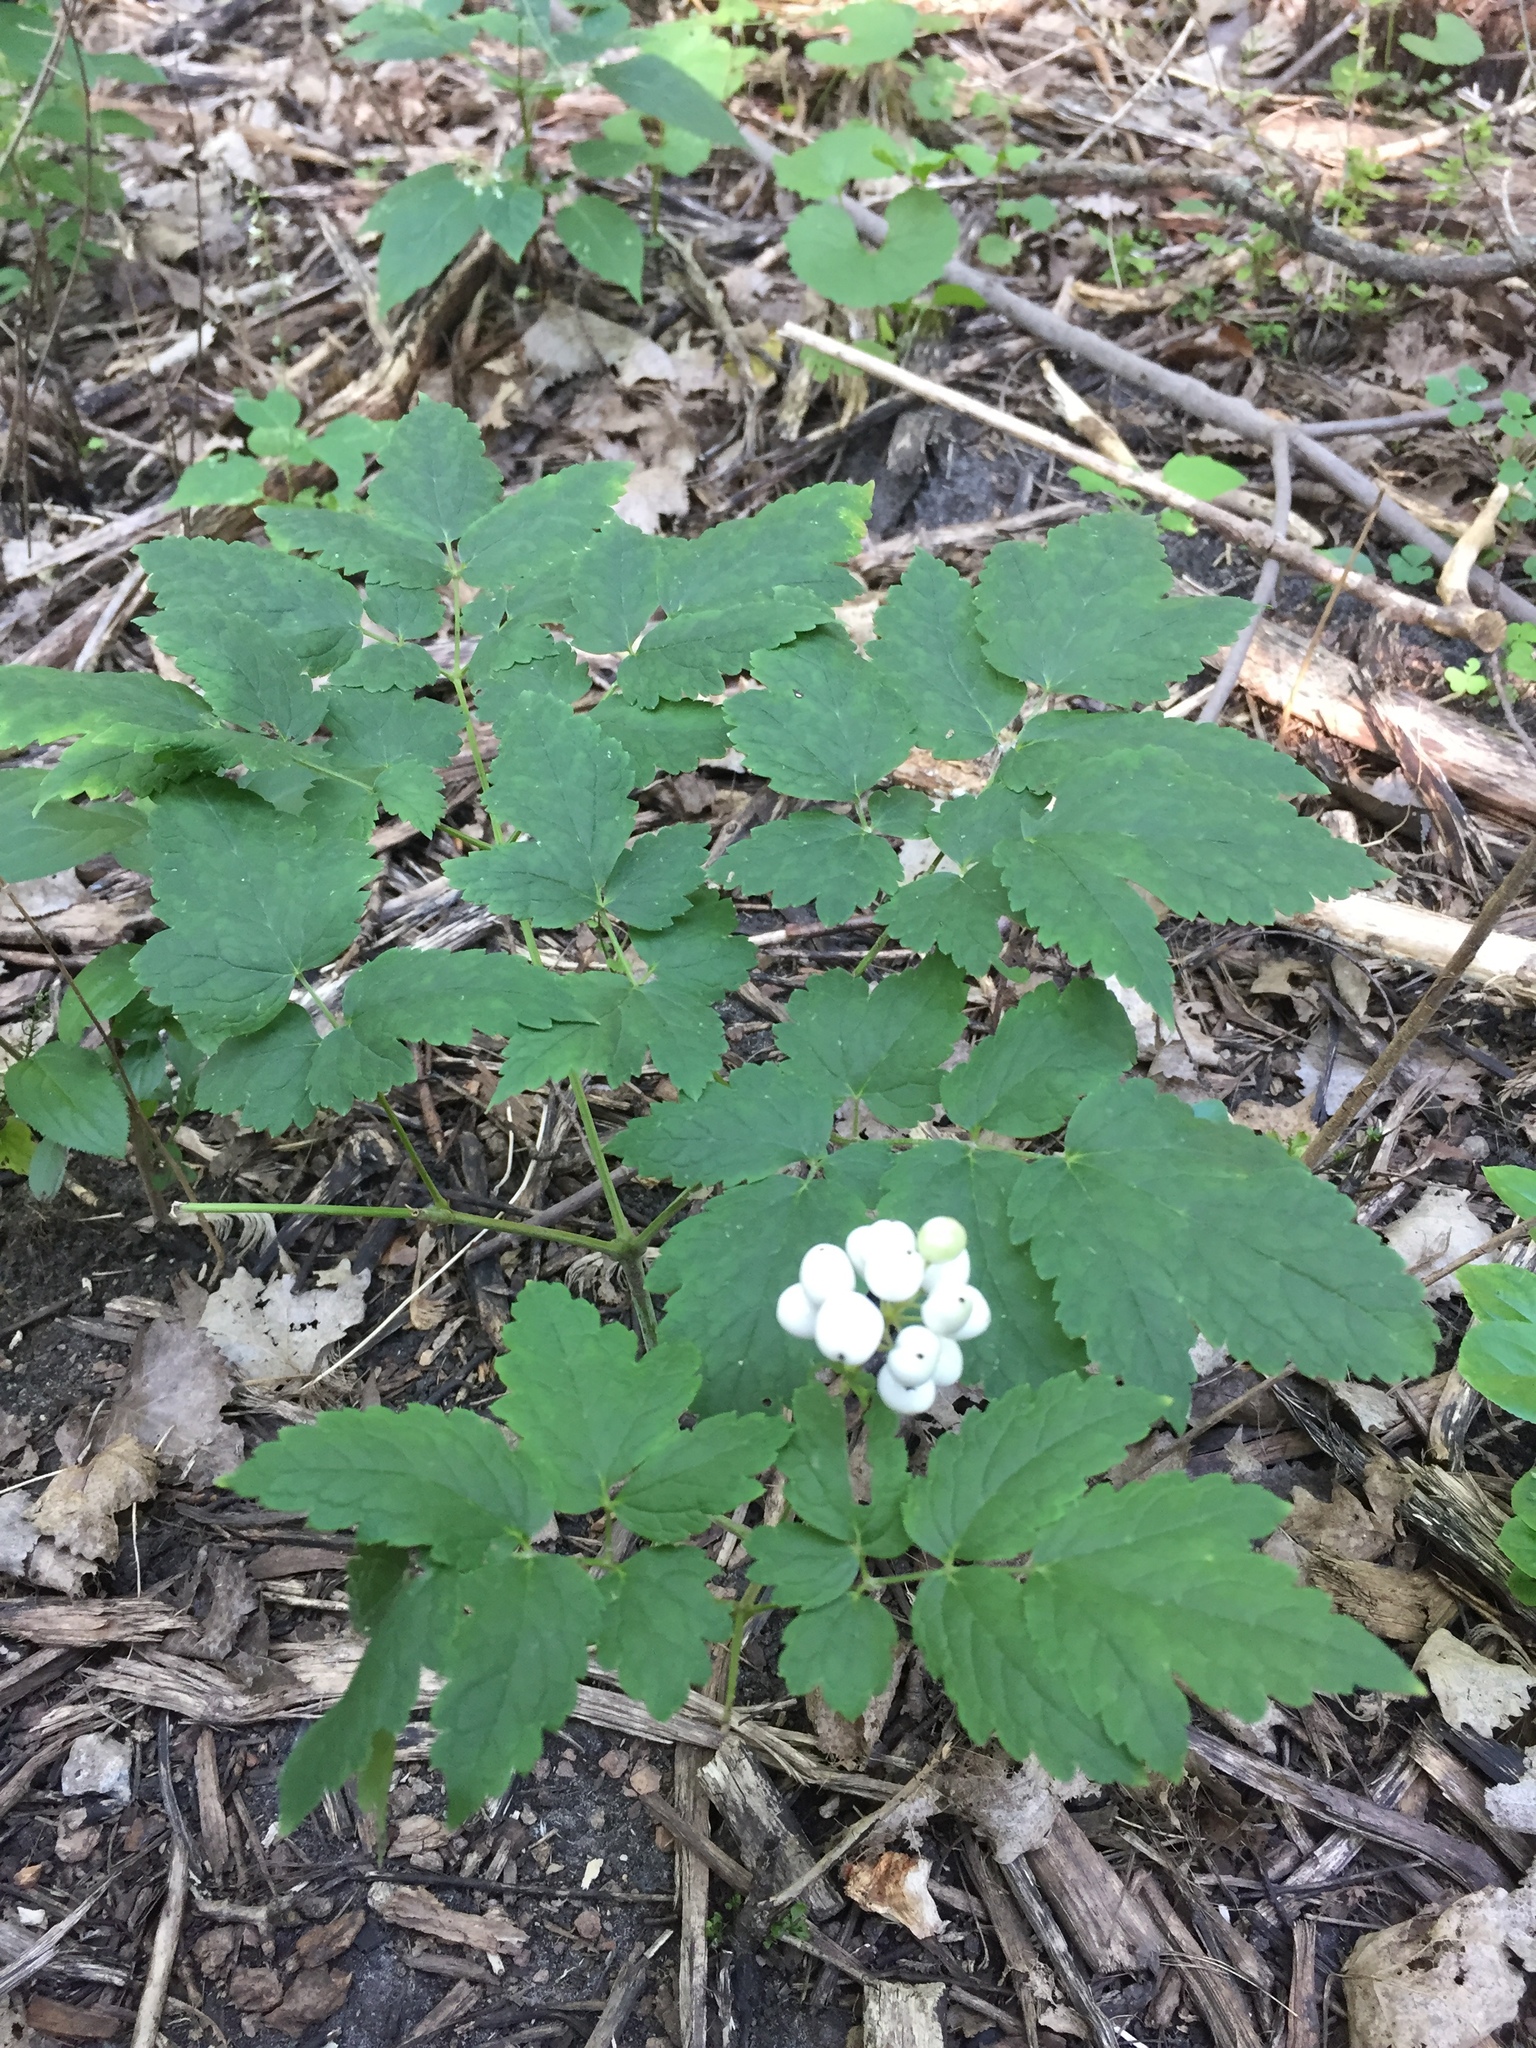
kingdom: Plantae
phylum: Tracheophyta
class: Magnoliopsida
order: Ranunculales
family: Ranunculaceae
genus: Actaea
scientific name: Actaea rubra
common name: Red baneberry
